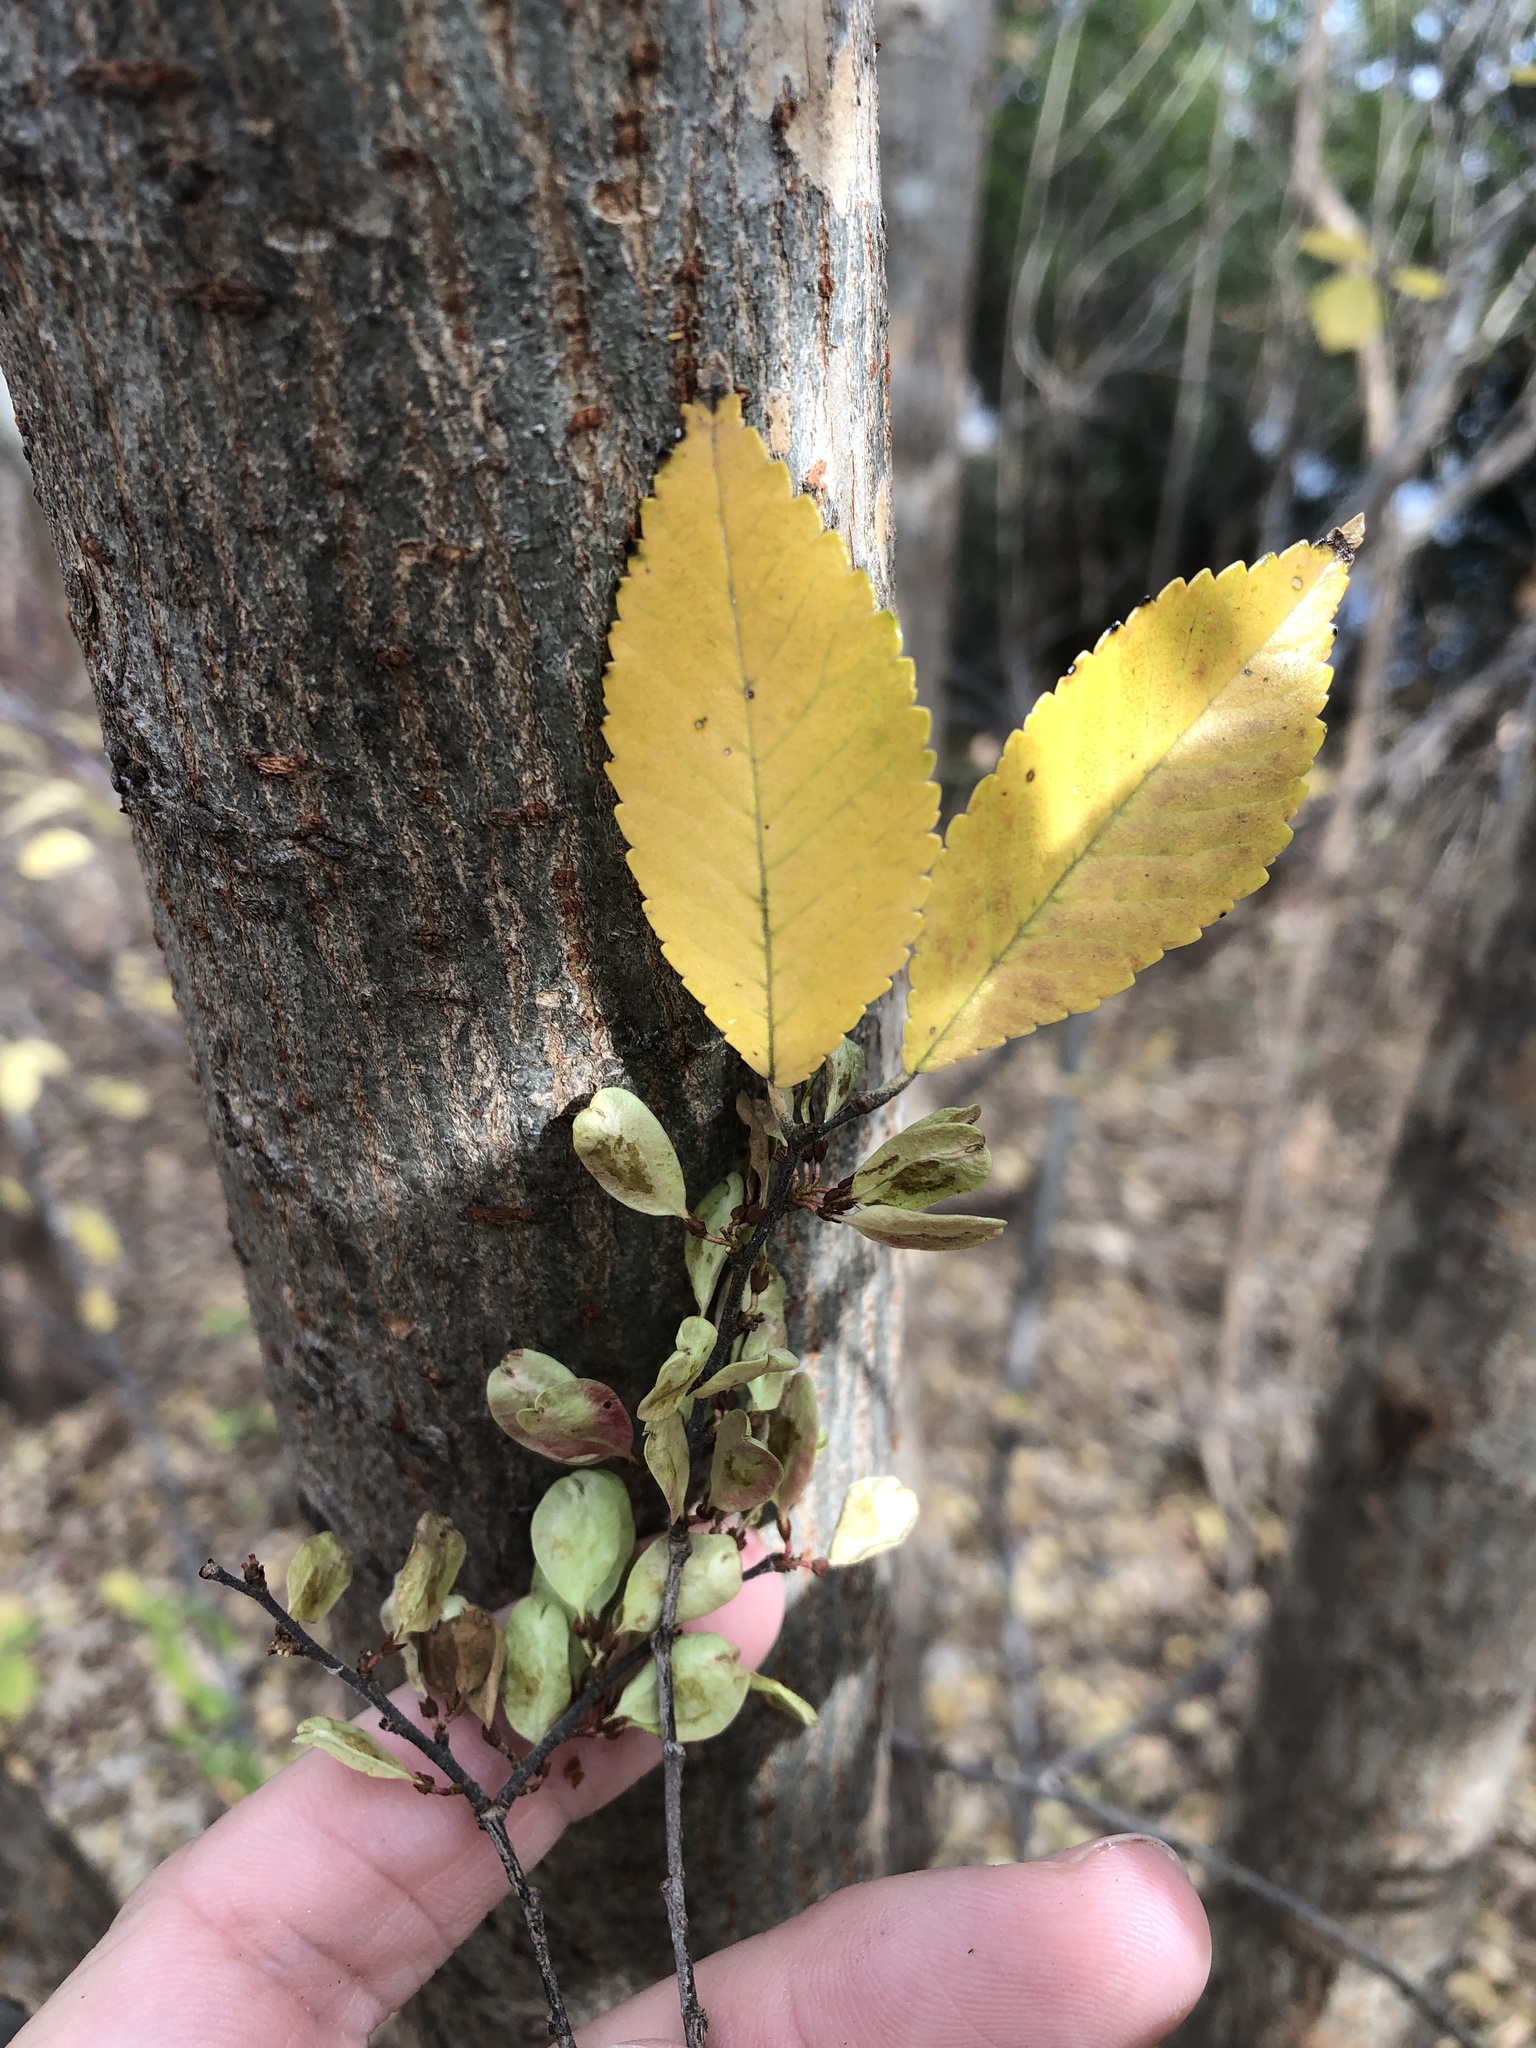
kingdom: Plantae
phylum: Tracheophyta
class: Magnoliopsida
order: Rosales
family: Ulmaceae
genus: Ulmus
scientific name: Ulmus parvifolia
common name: Chinese elm
